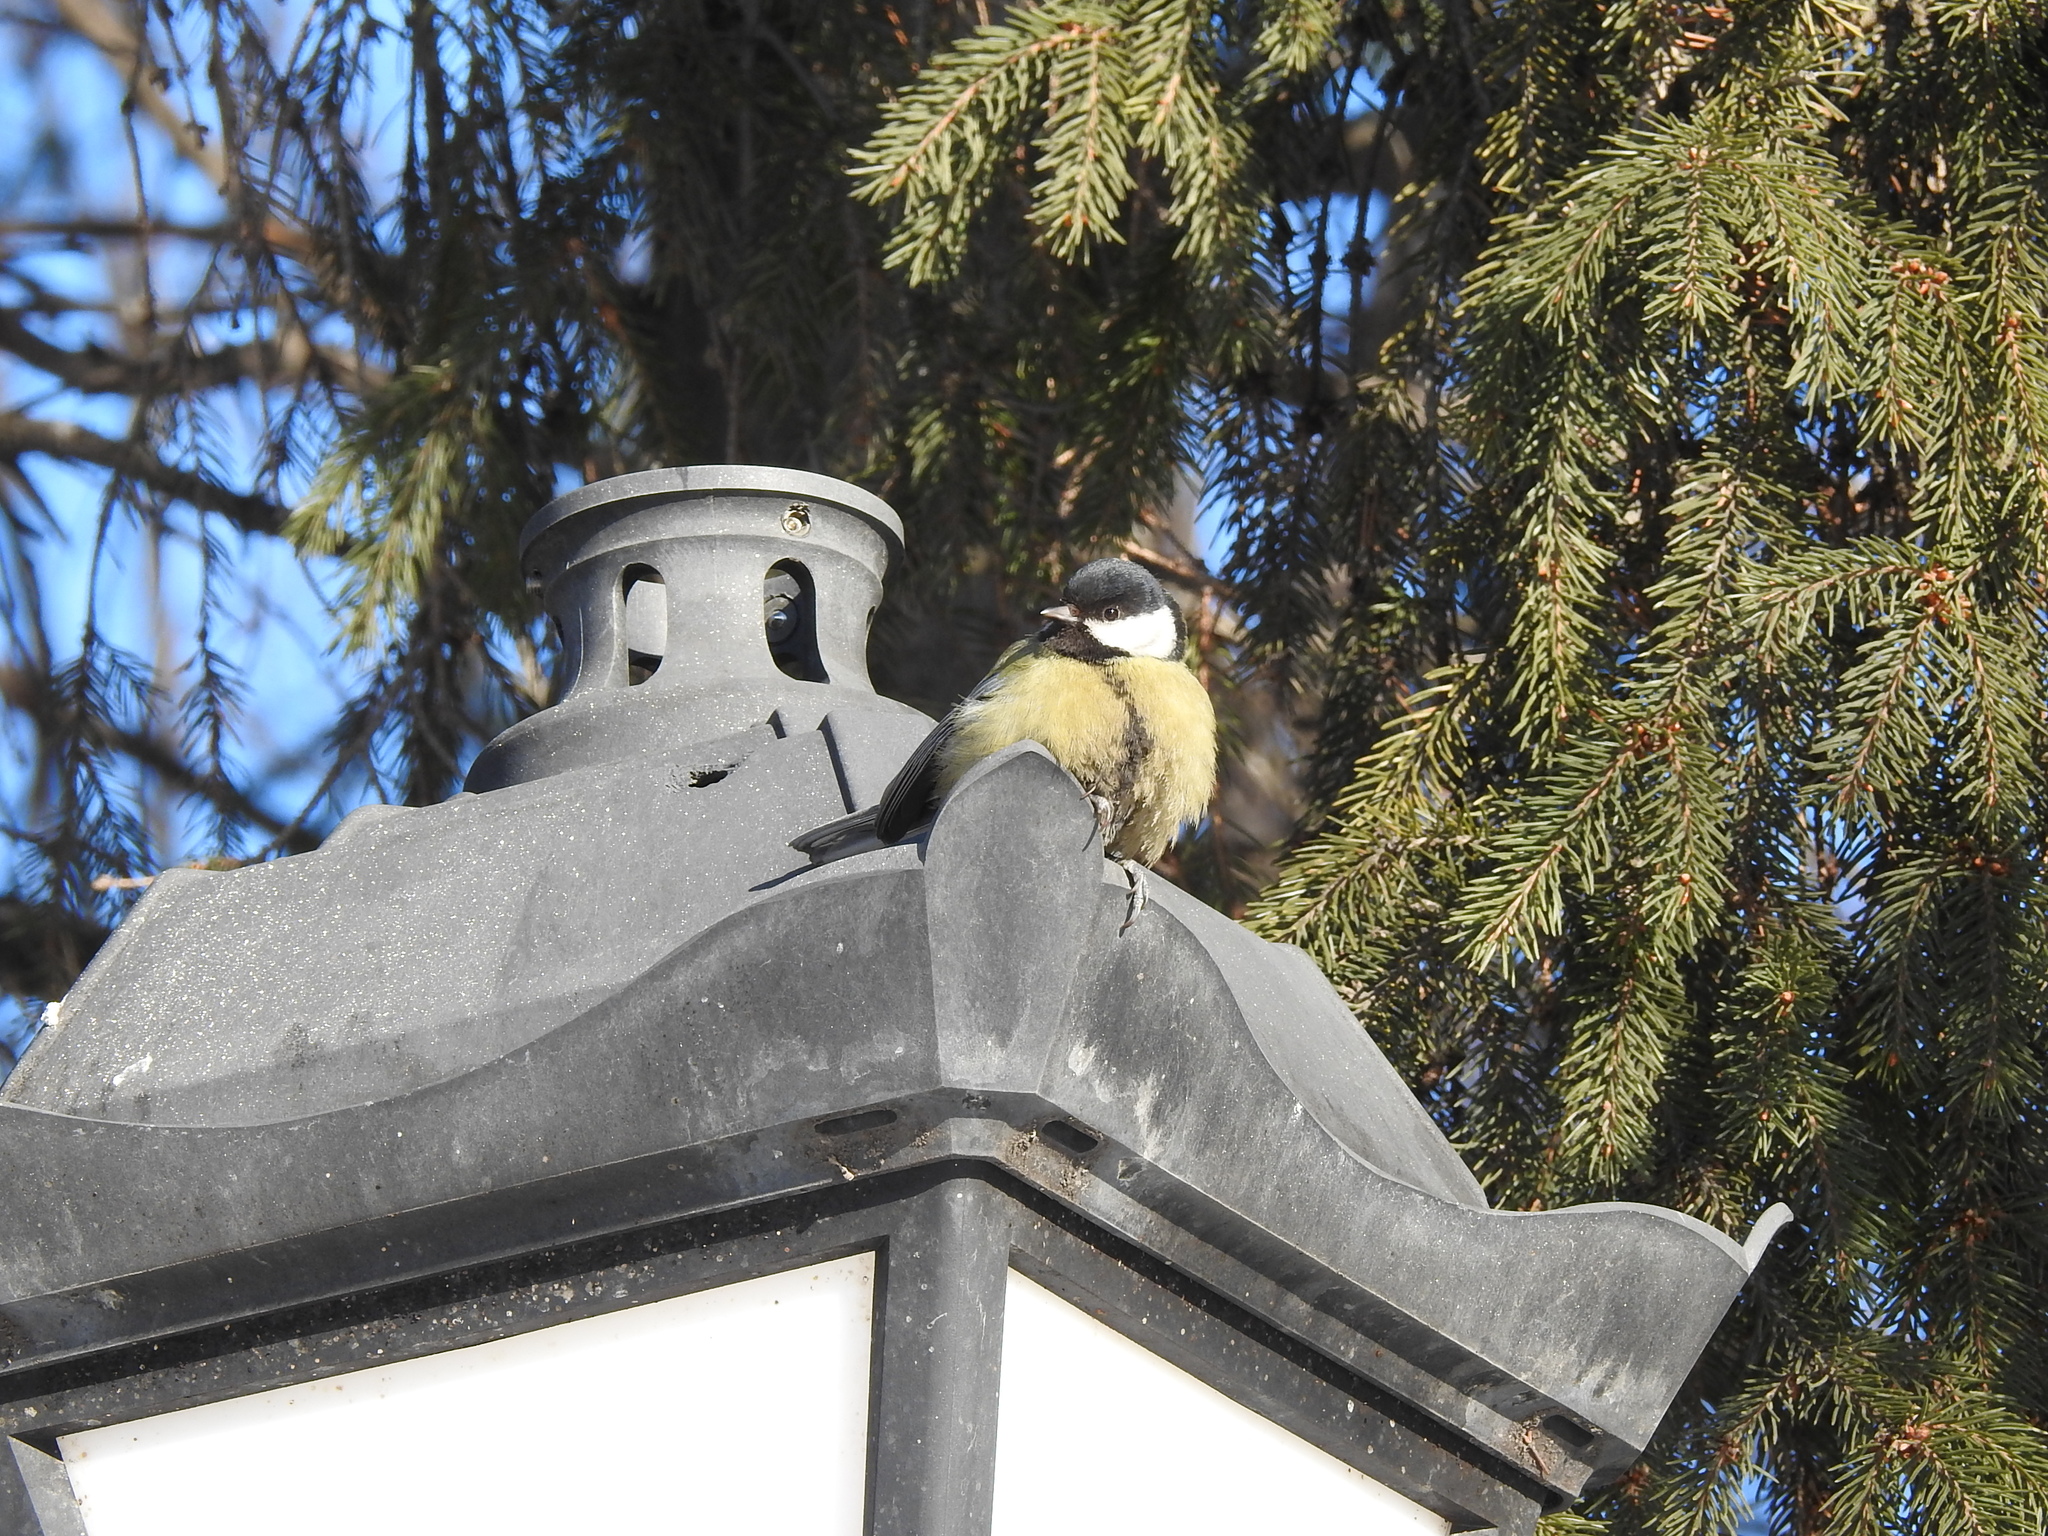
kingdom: Animalia
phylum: Chordata
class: Aves
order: Passeriformes
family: Paridae
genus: Parus
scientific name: Parus major
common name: Great tit
